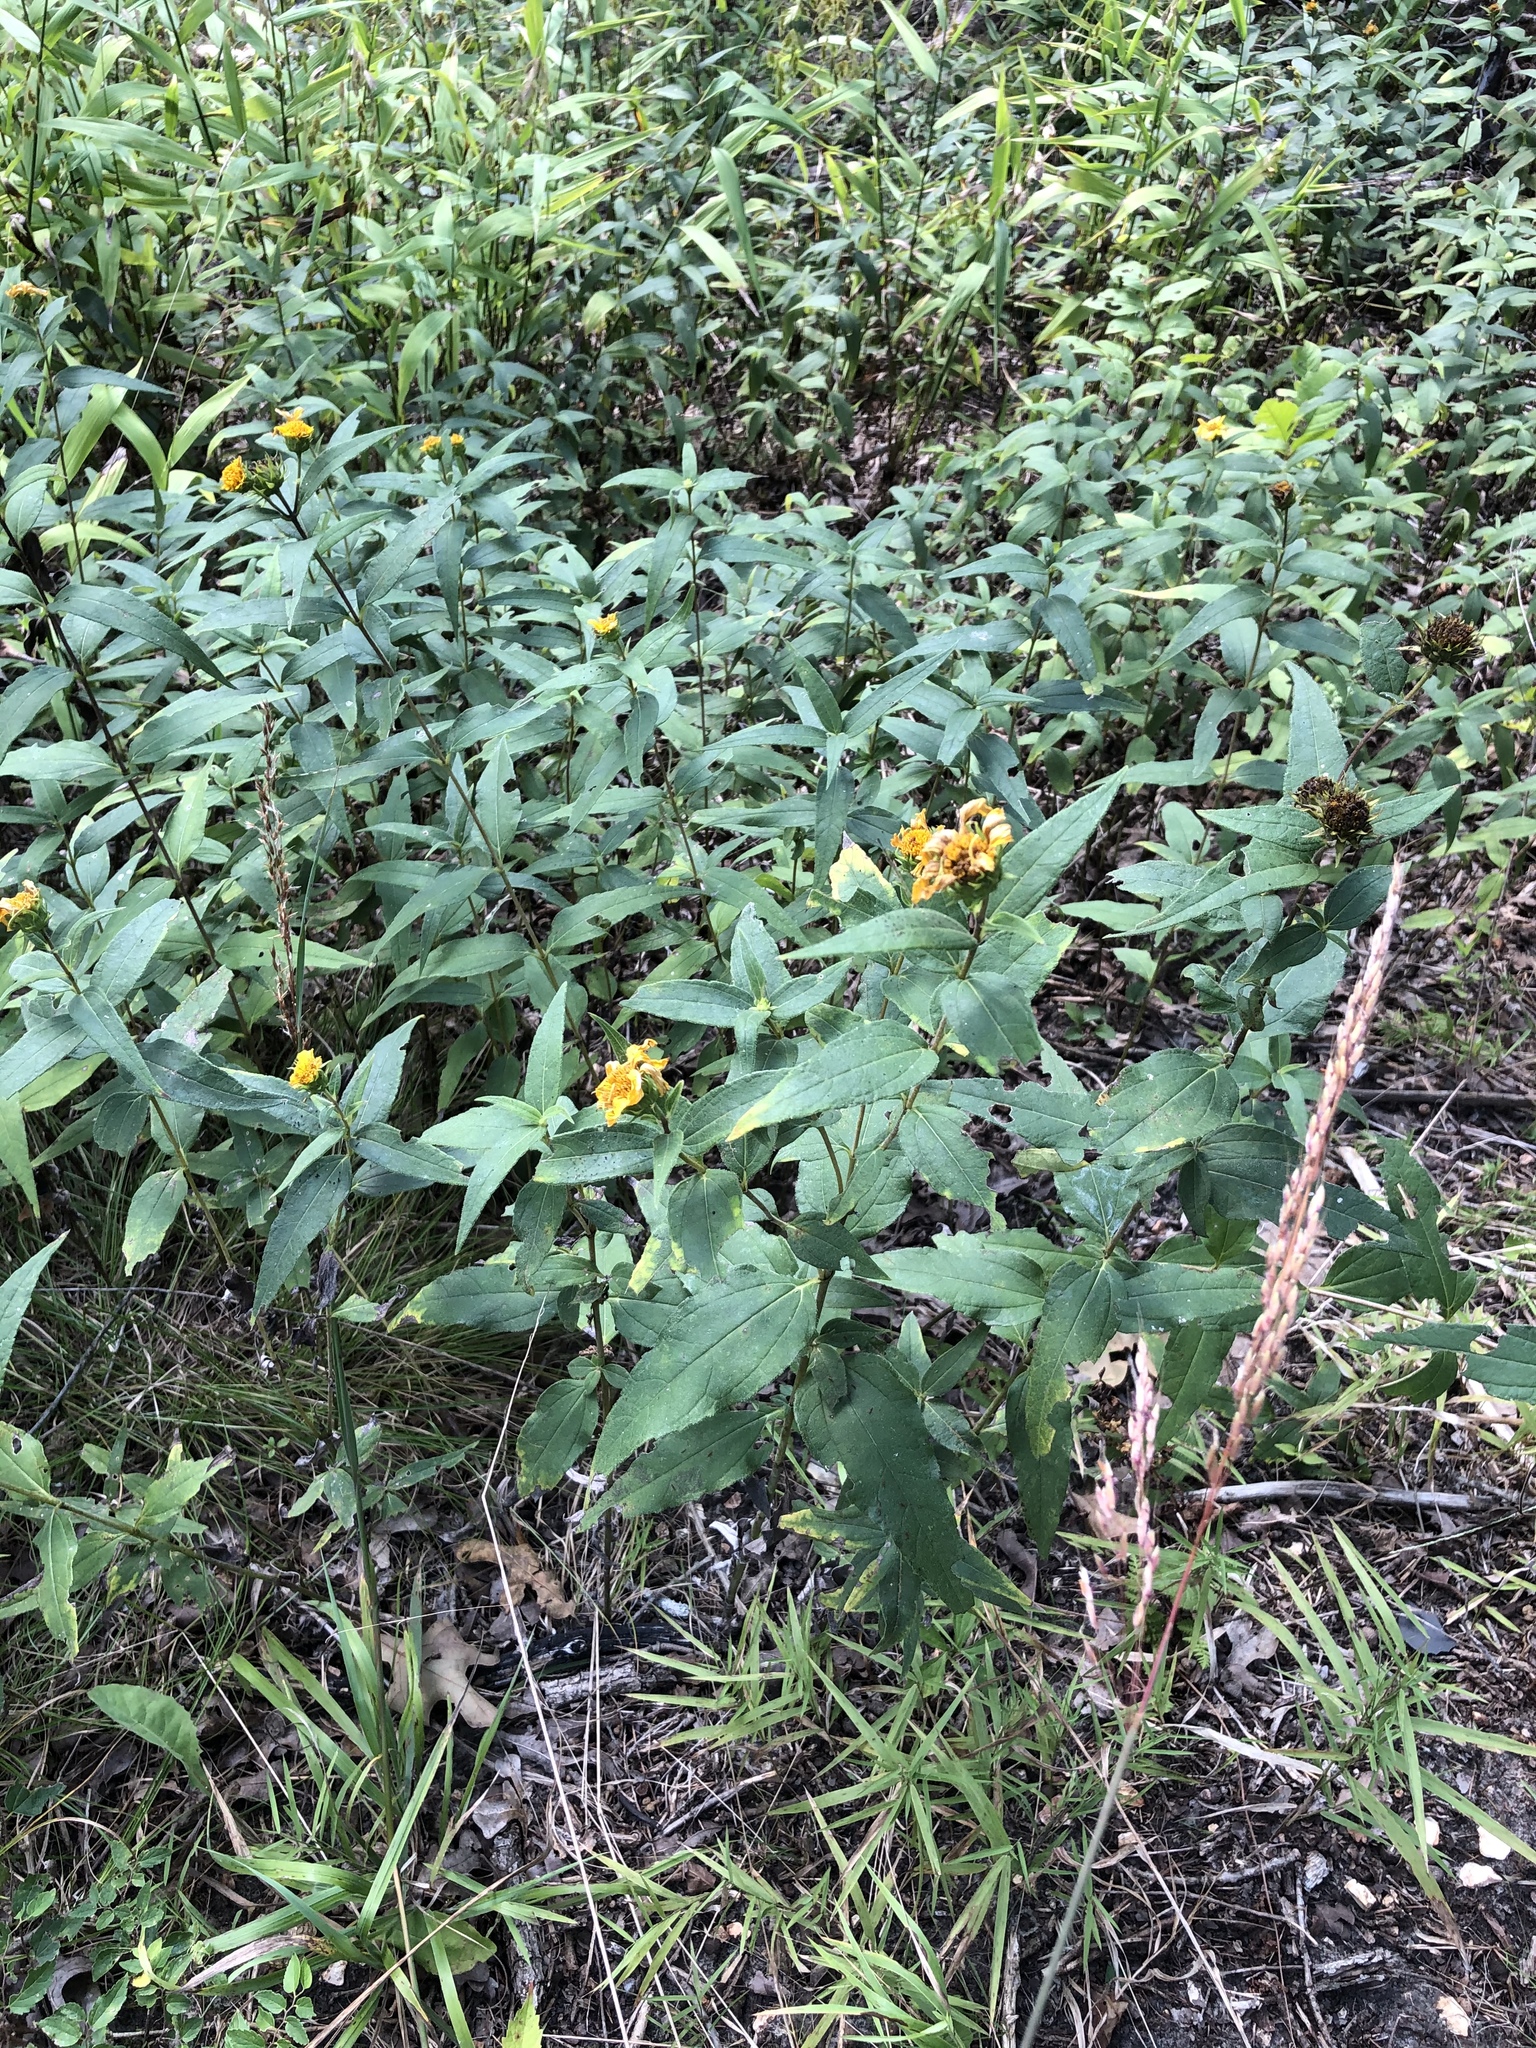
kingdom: Plantae
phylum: Tracheophyta
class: Magnoliopsida
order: Asterales
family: Asteraceae
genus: Helianthus
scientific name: Helianthus hirsutus
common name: Hairy sunflower
